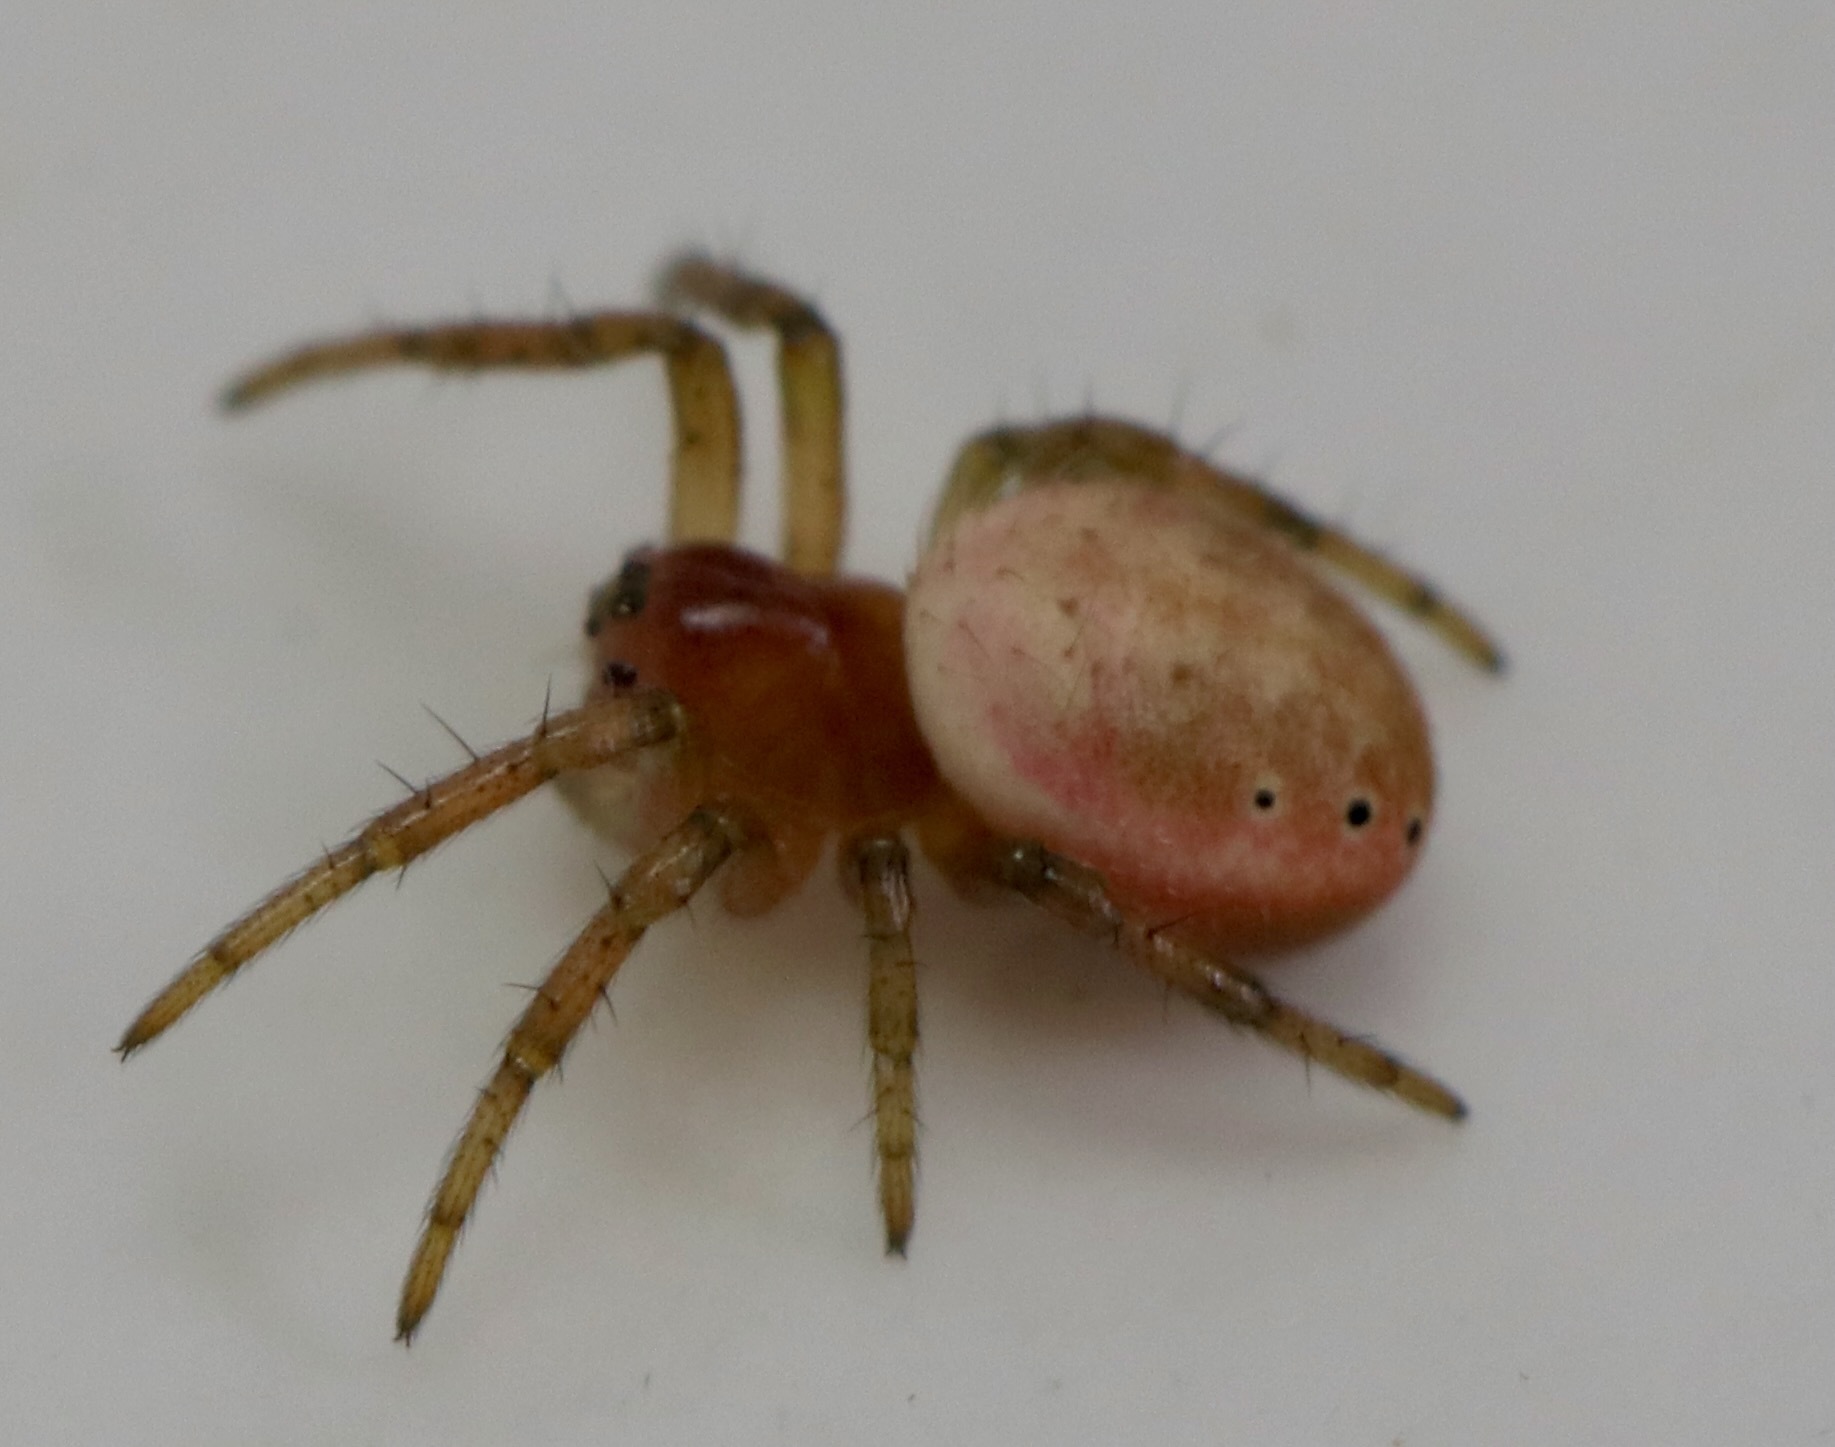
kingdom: Animalia
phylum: Arthropoda
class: Arachnida
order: Araneae
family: Araneidae
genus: Araniella
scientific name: Araniella displicata
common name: Sixspotted orb weaver
